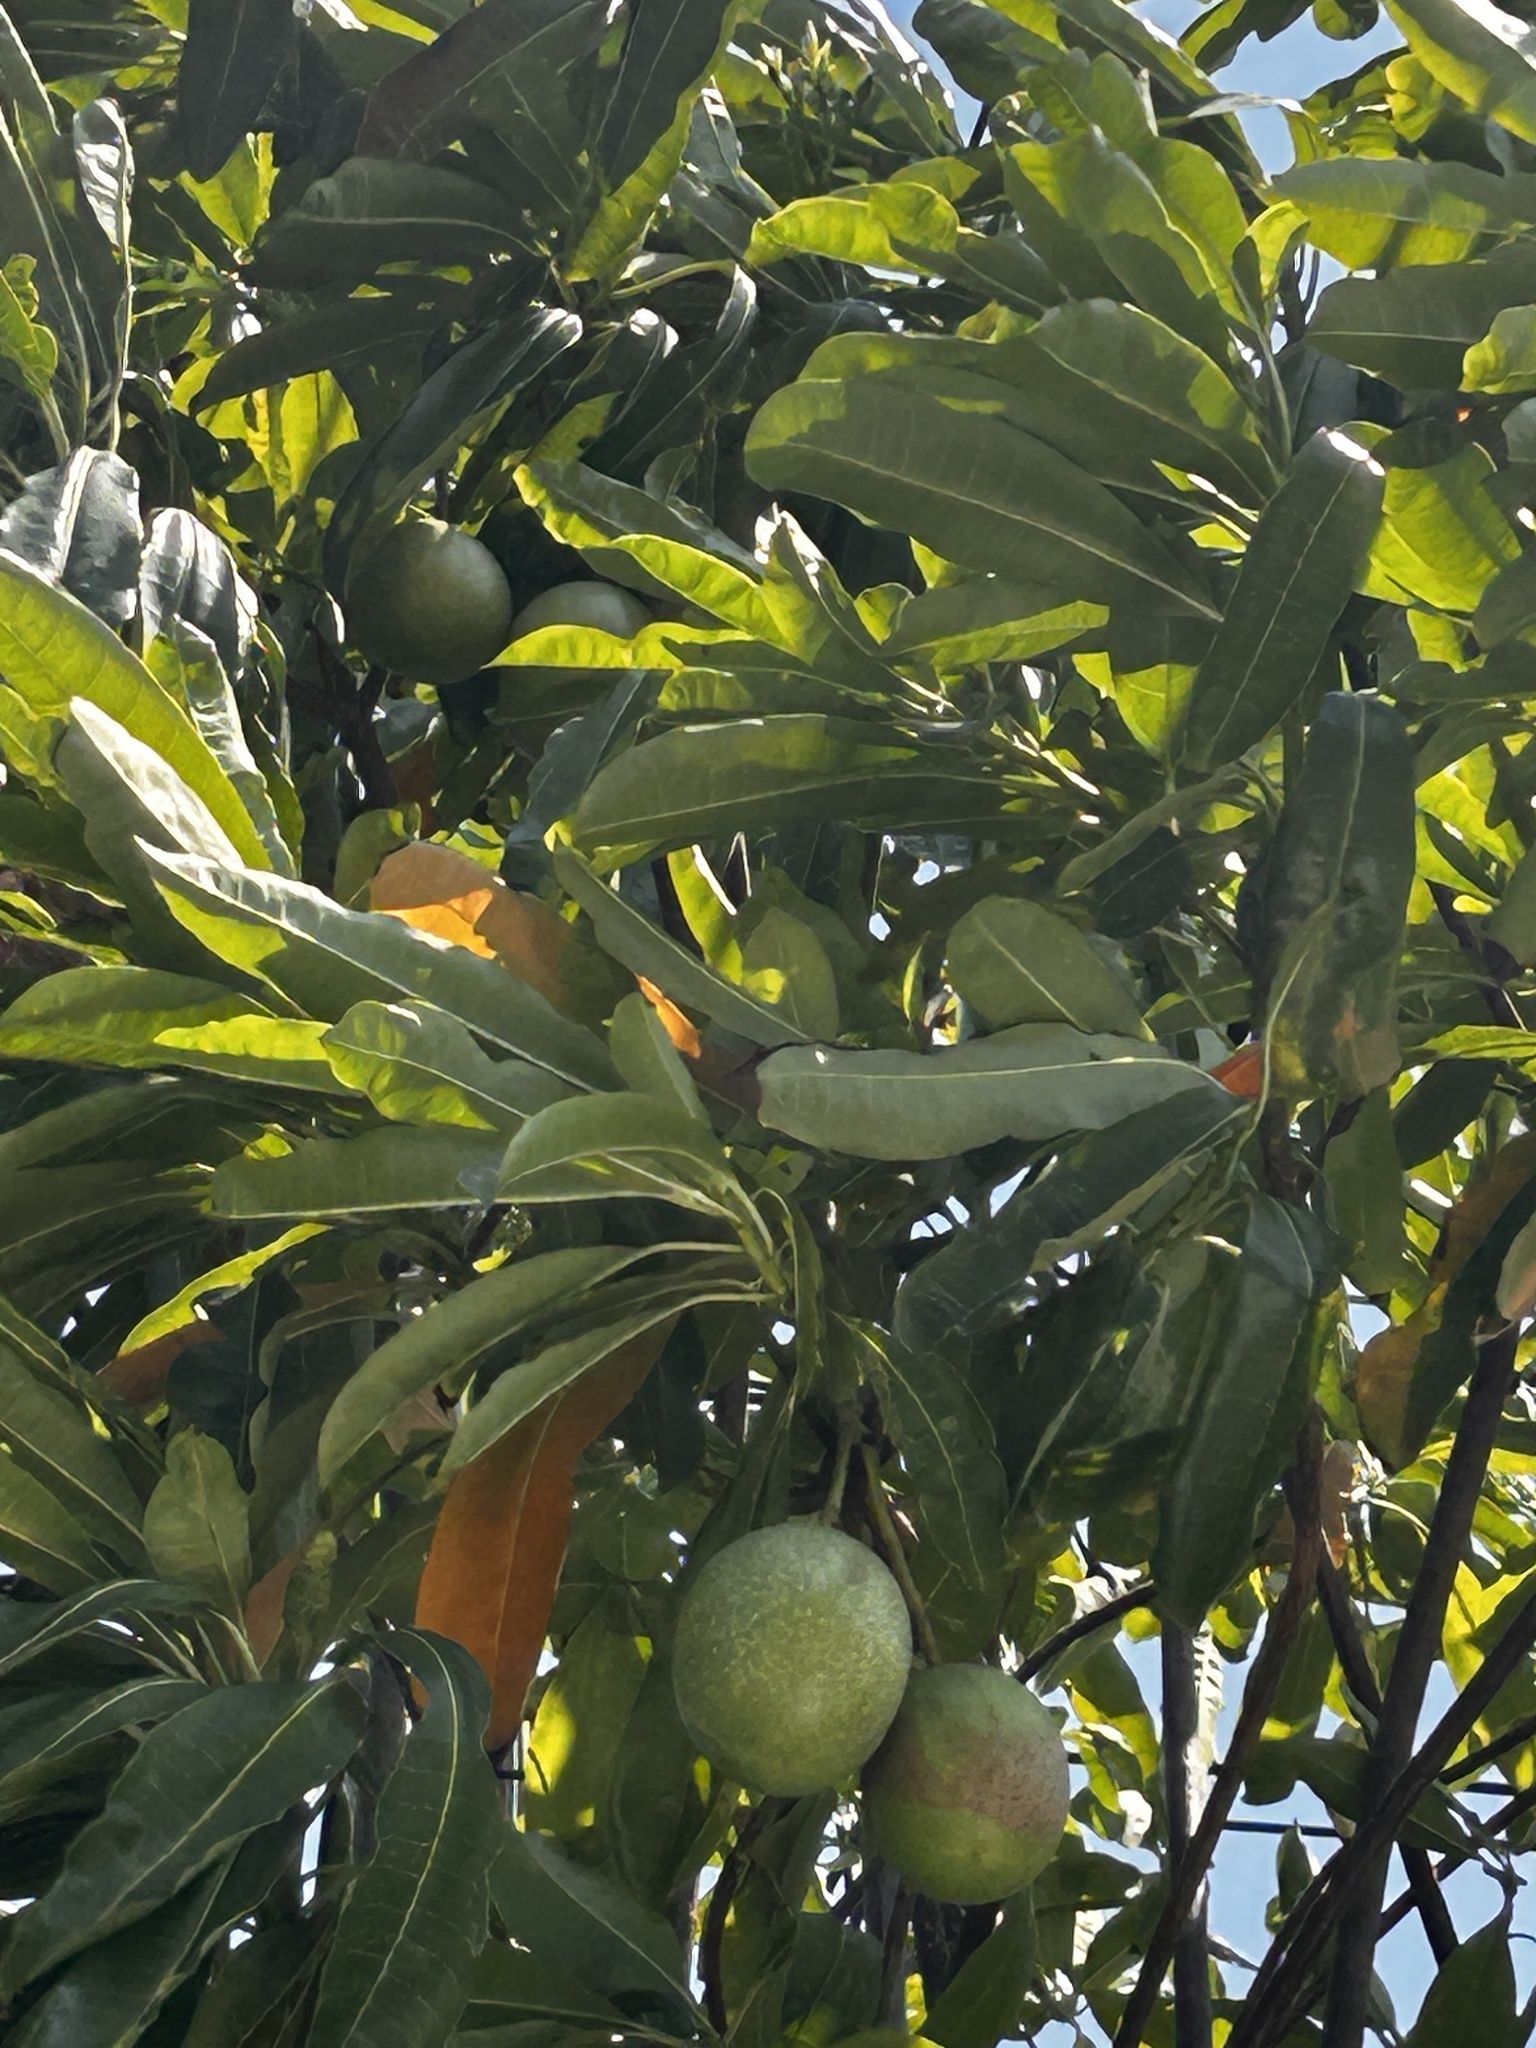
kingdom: Plantae
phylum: Tracheophyta
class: Magnoliopsida
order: Gentianales
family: Apocynaceae
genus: Cerbera
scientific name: Cerbera odollam
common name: Pong-pong
